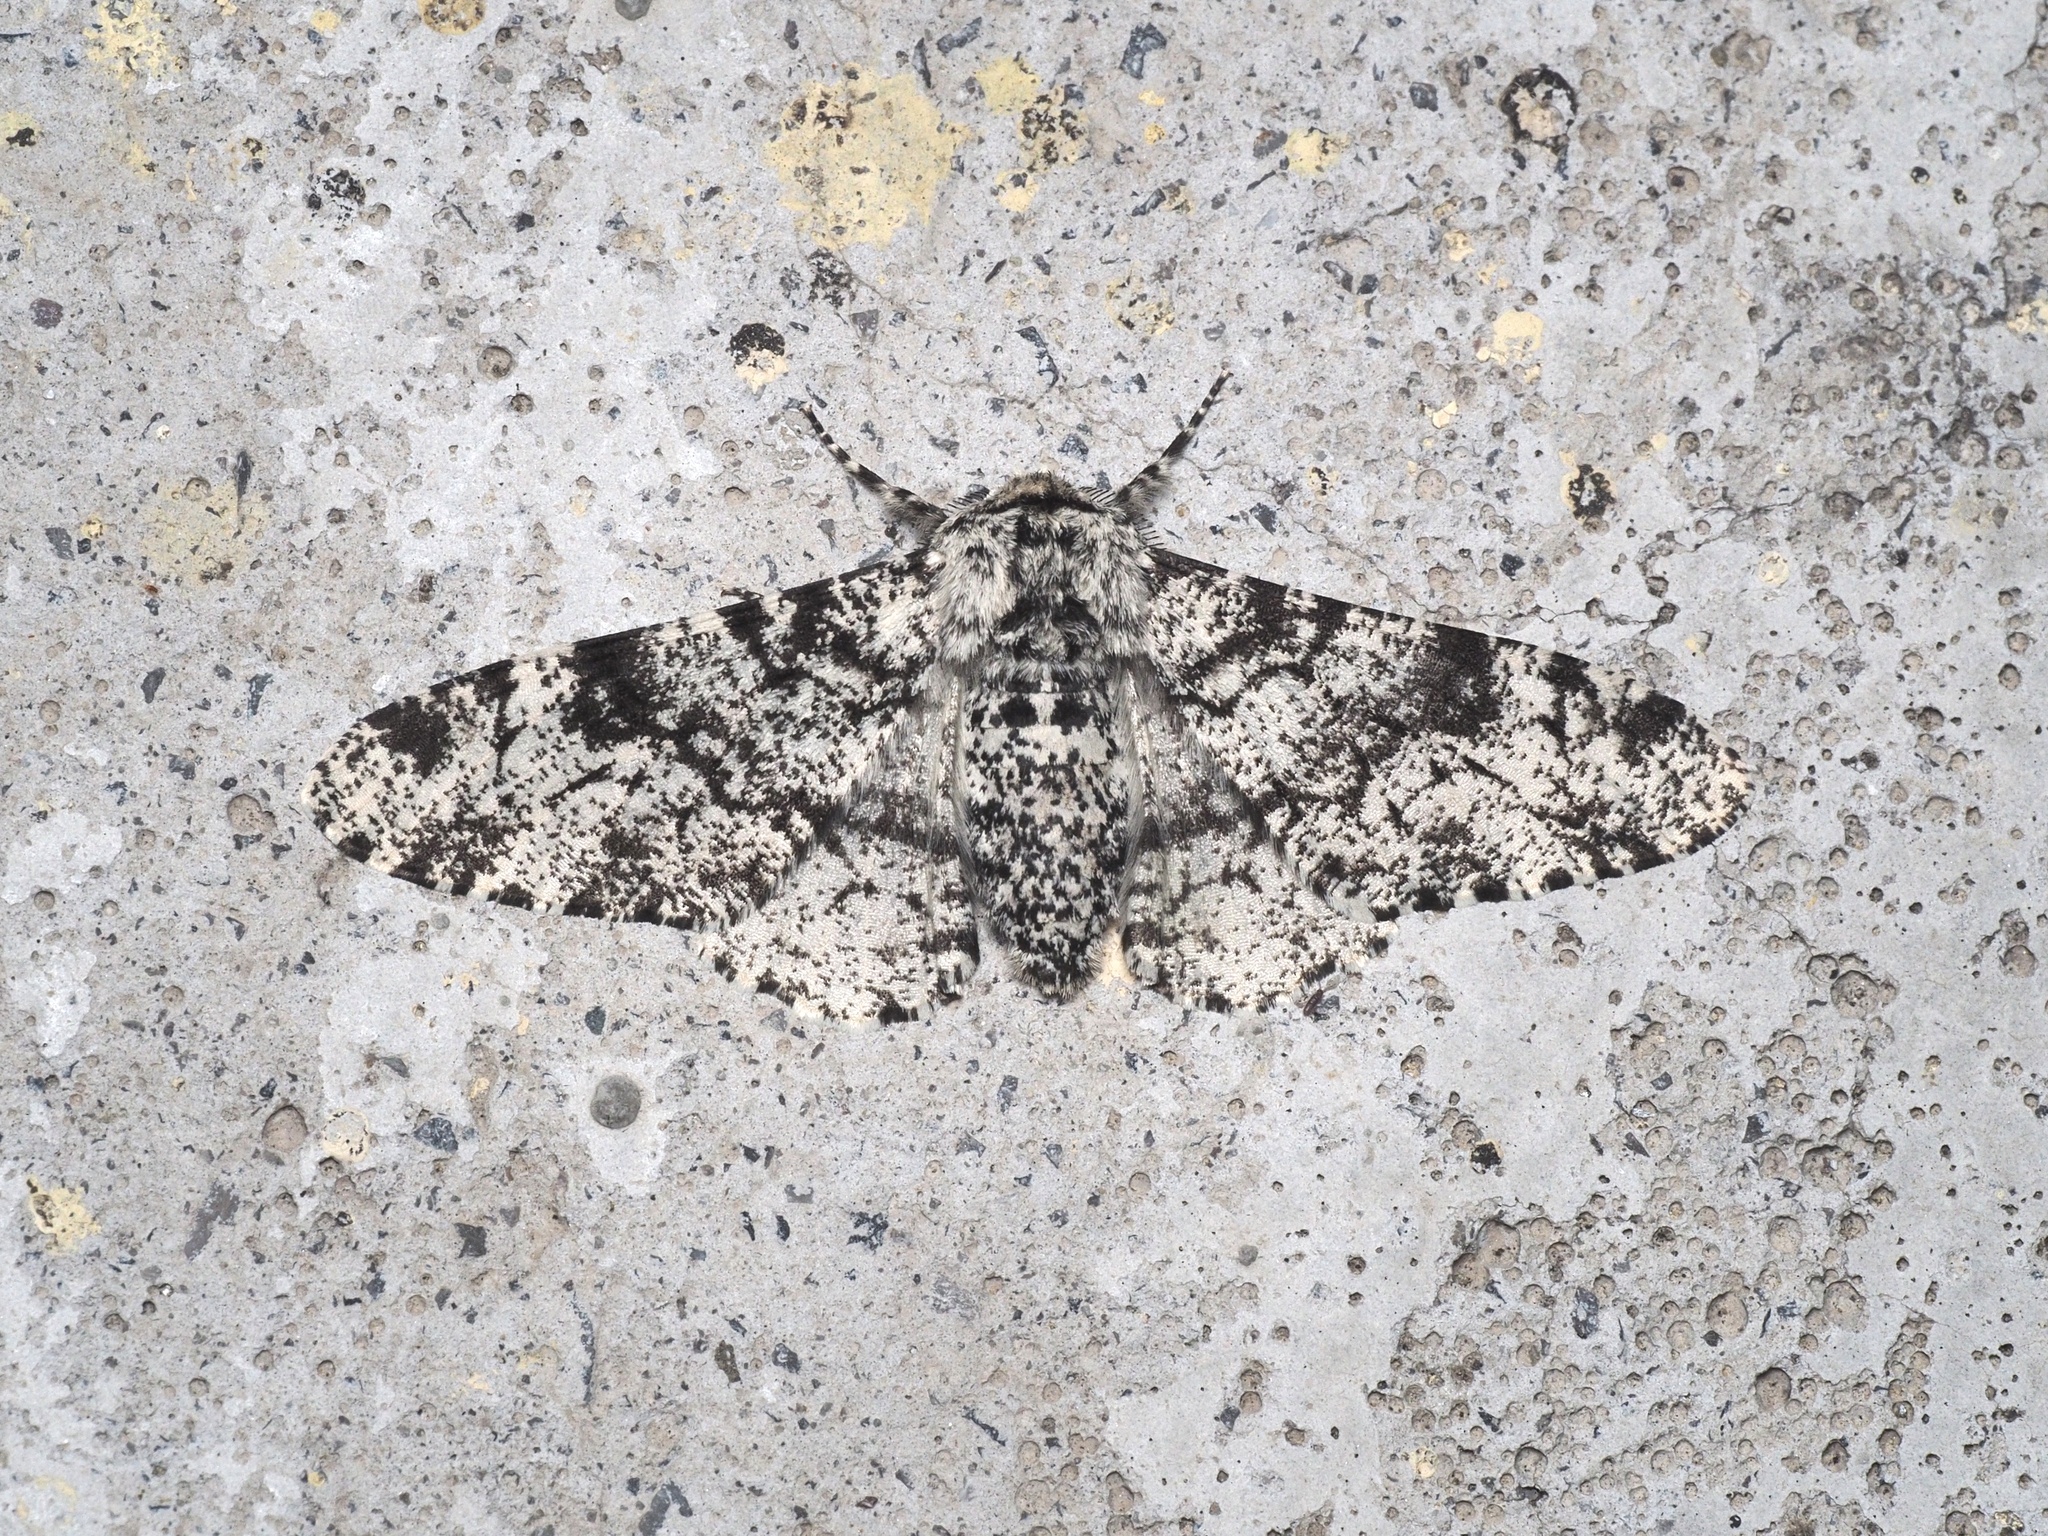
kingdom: Animalia
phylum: Arthropoda
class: Insecta
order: Lepidoptera
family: Geometridae
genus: Biston
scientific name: Biston betularia
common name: Peppered moth
